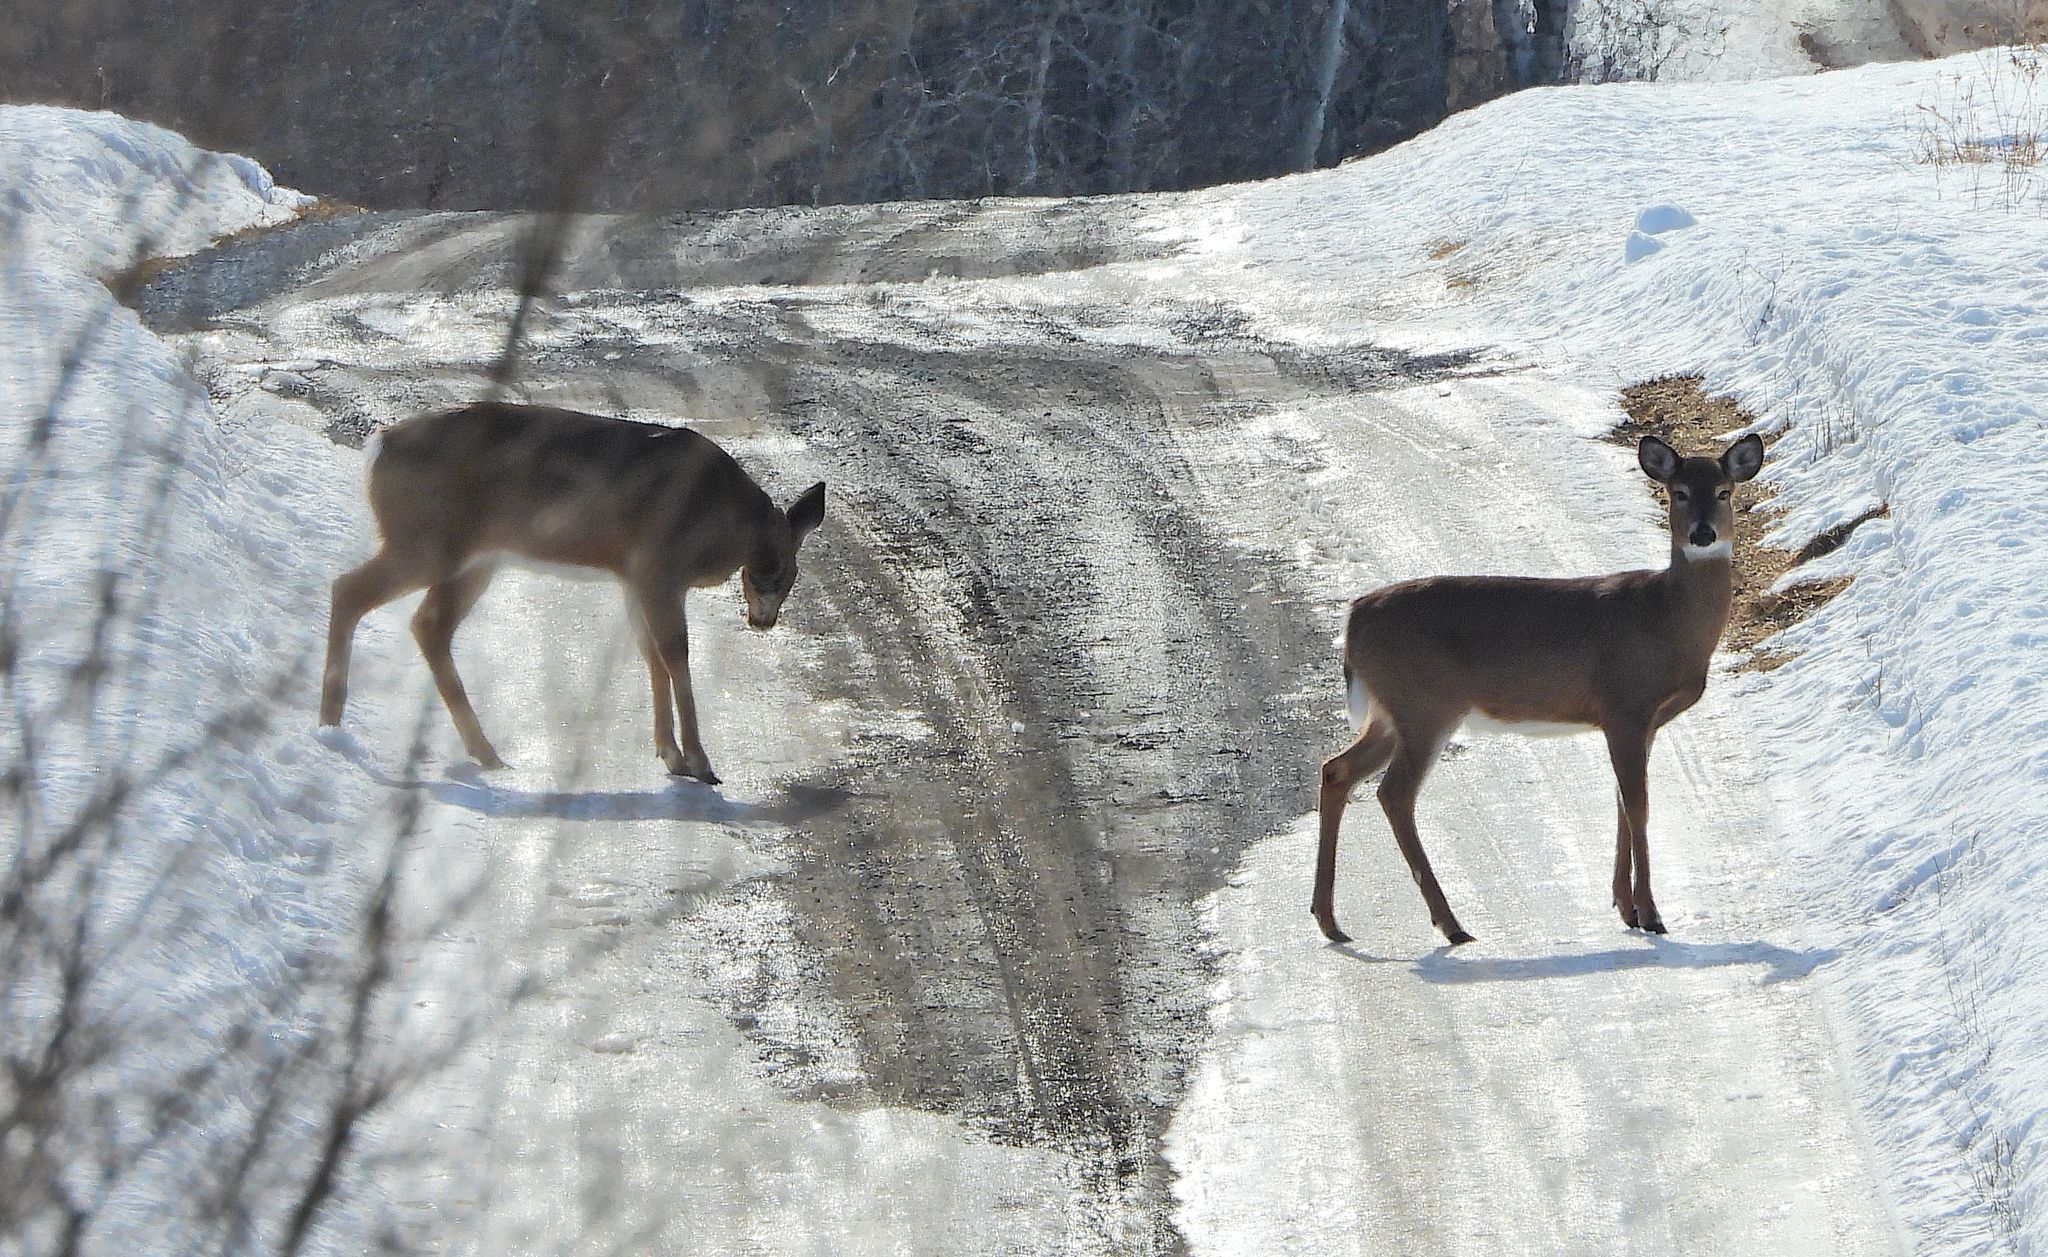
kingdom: Animalia
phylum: Chordata
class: Mammalia
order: Artiodactyla
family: Cervidae
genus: Odocoileus
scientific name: Odocoileus virginianus
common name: White-tailed deer
